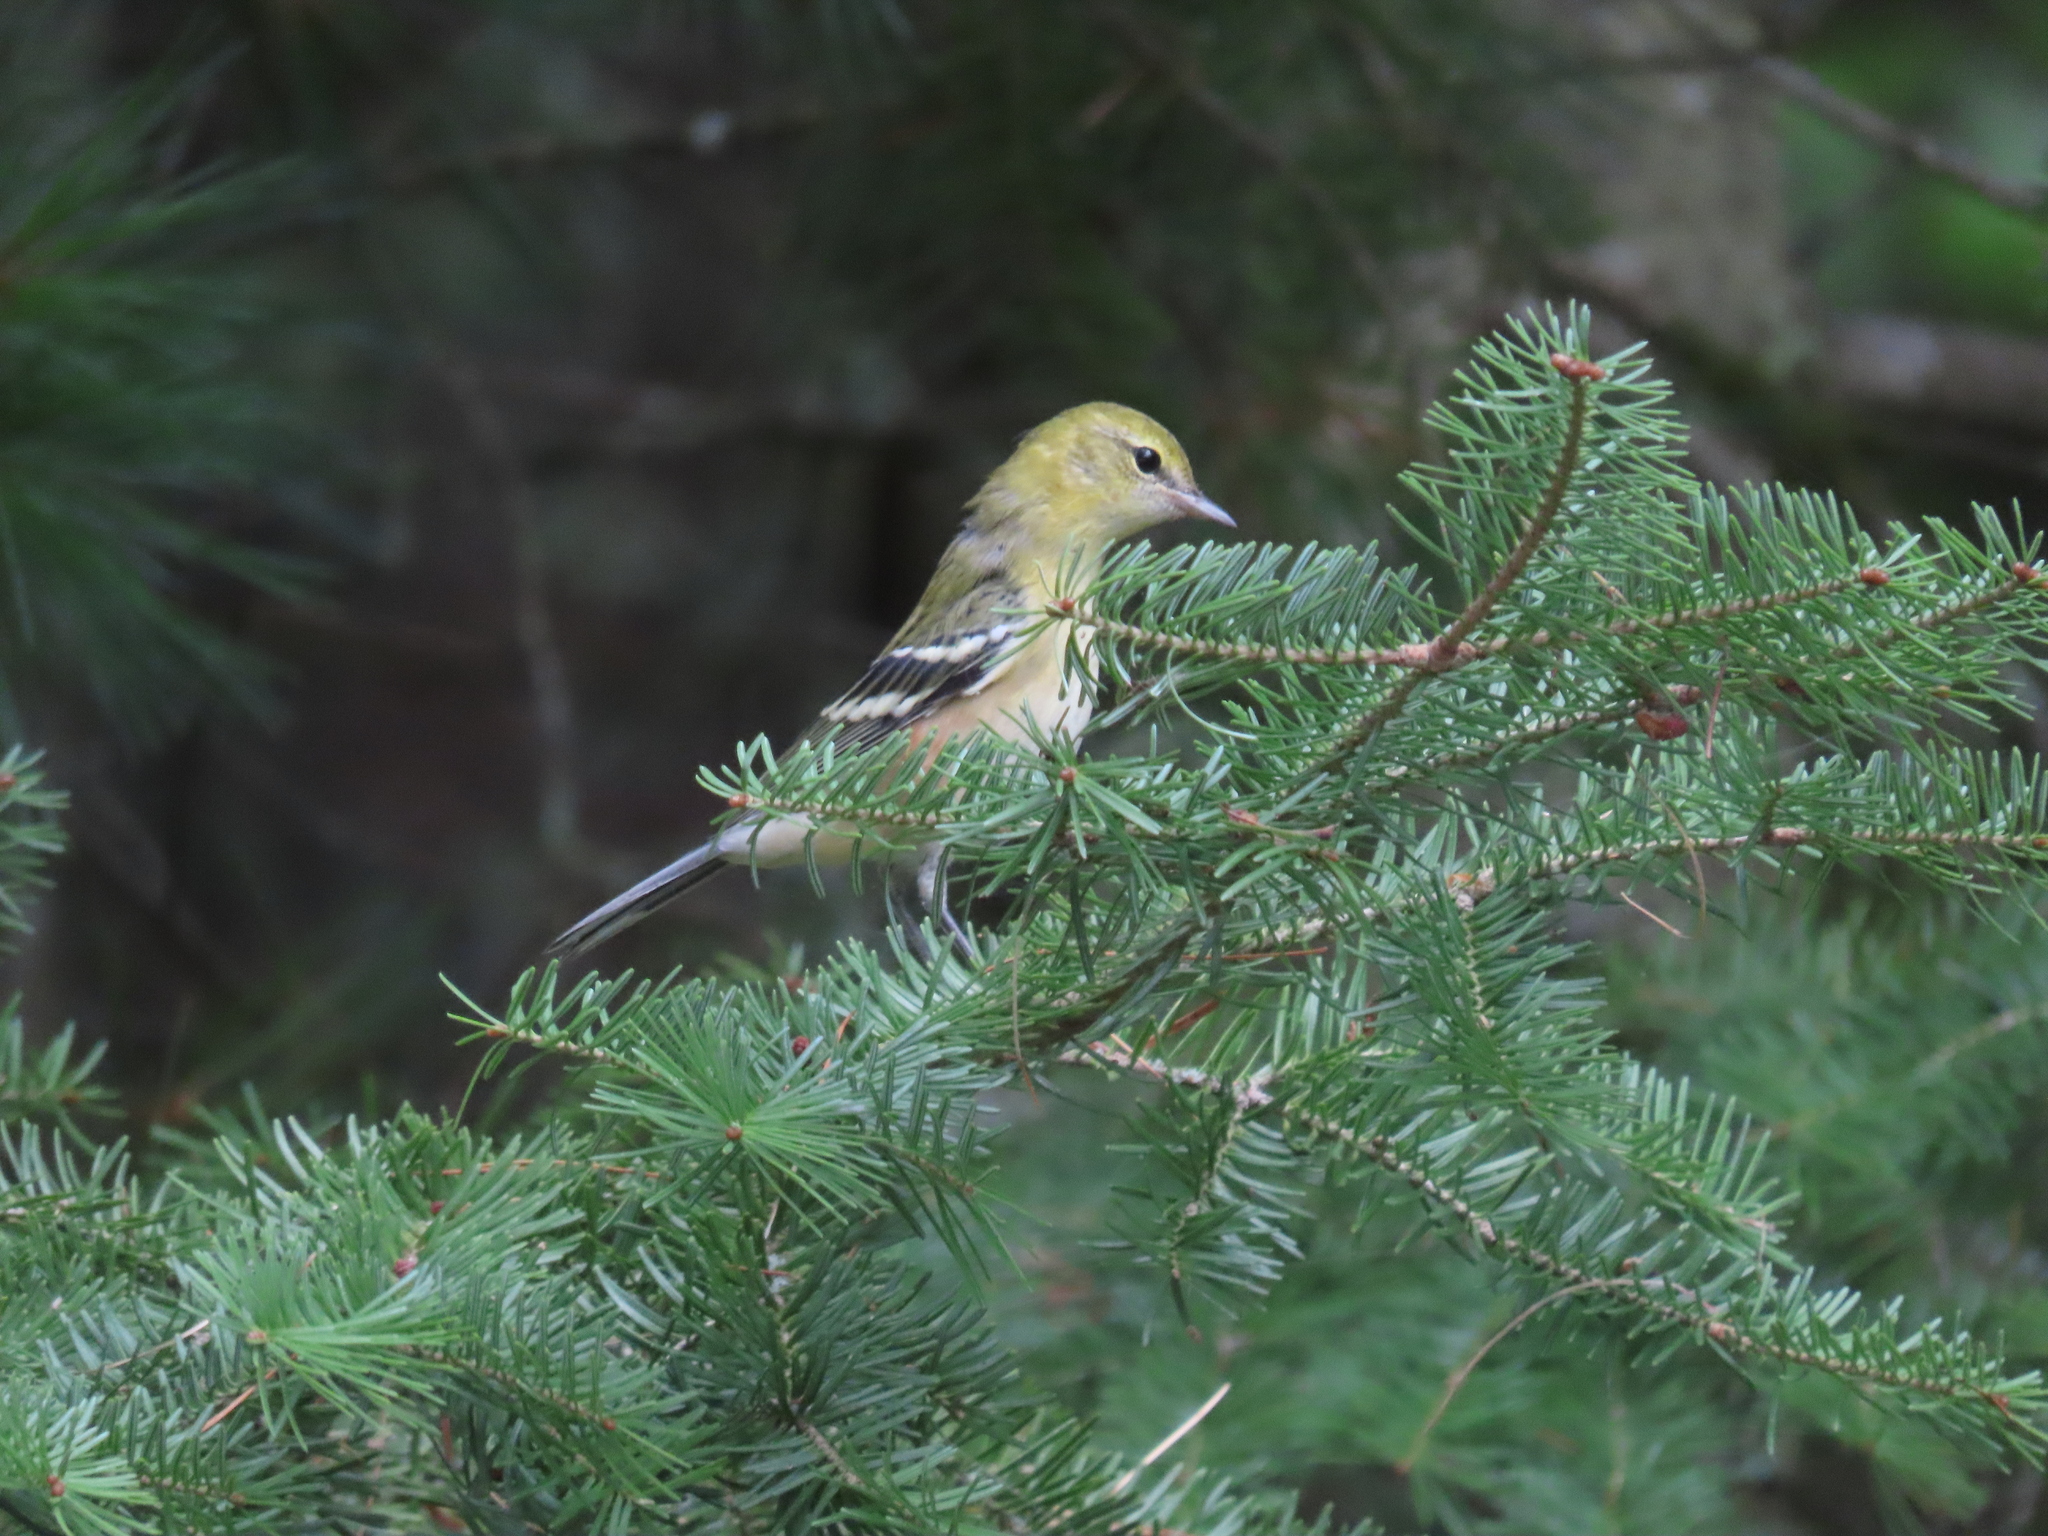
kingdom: Animalia
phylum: Chordata
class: Aves
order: Passeriformes
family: Parulidae
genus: Setophaga
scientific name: Setophaga castanea
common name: Bay-breasted warbler
